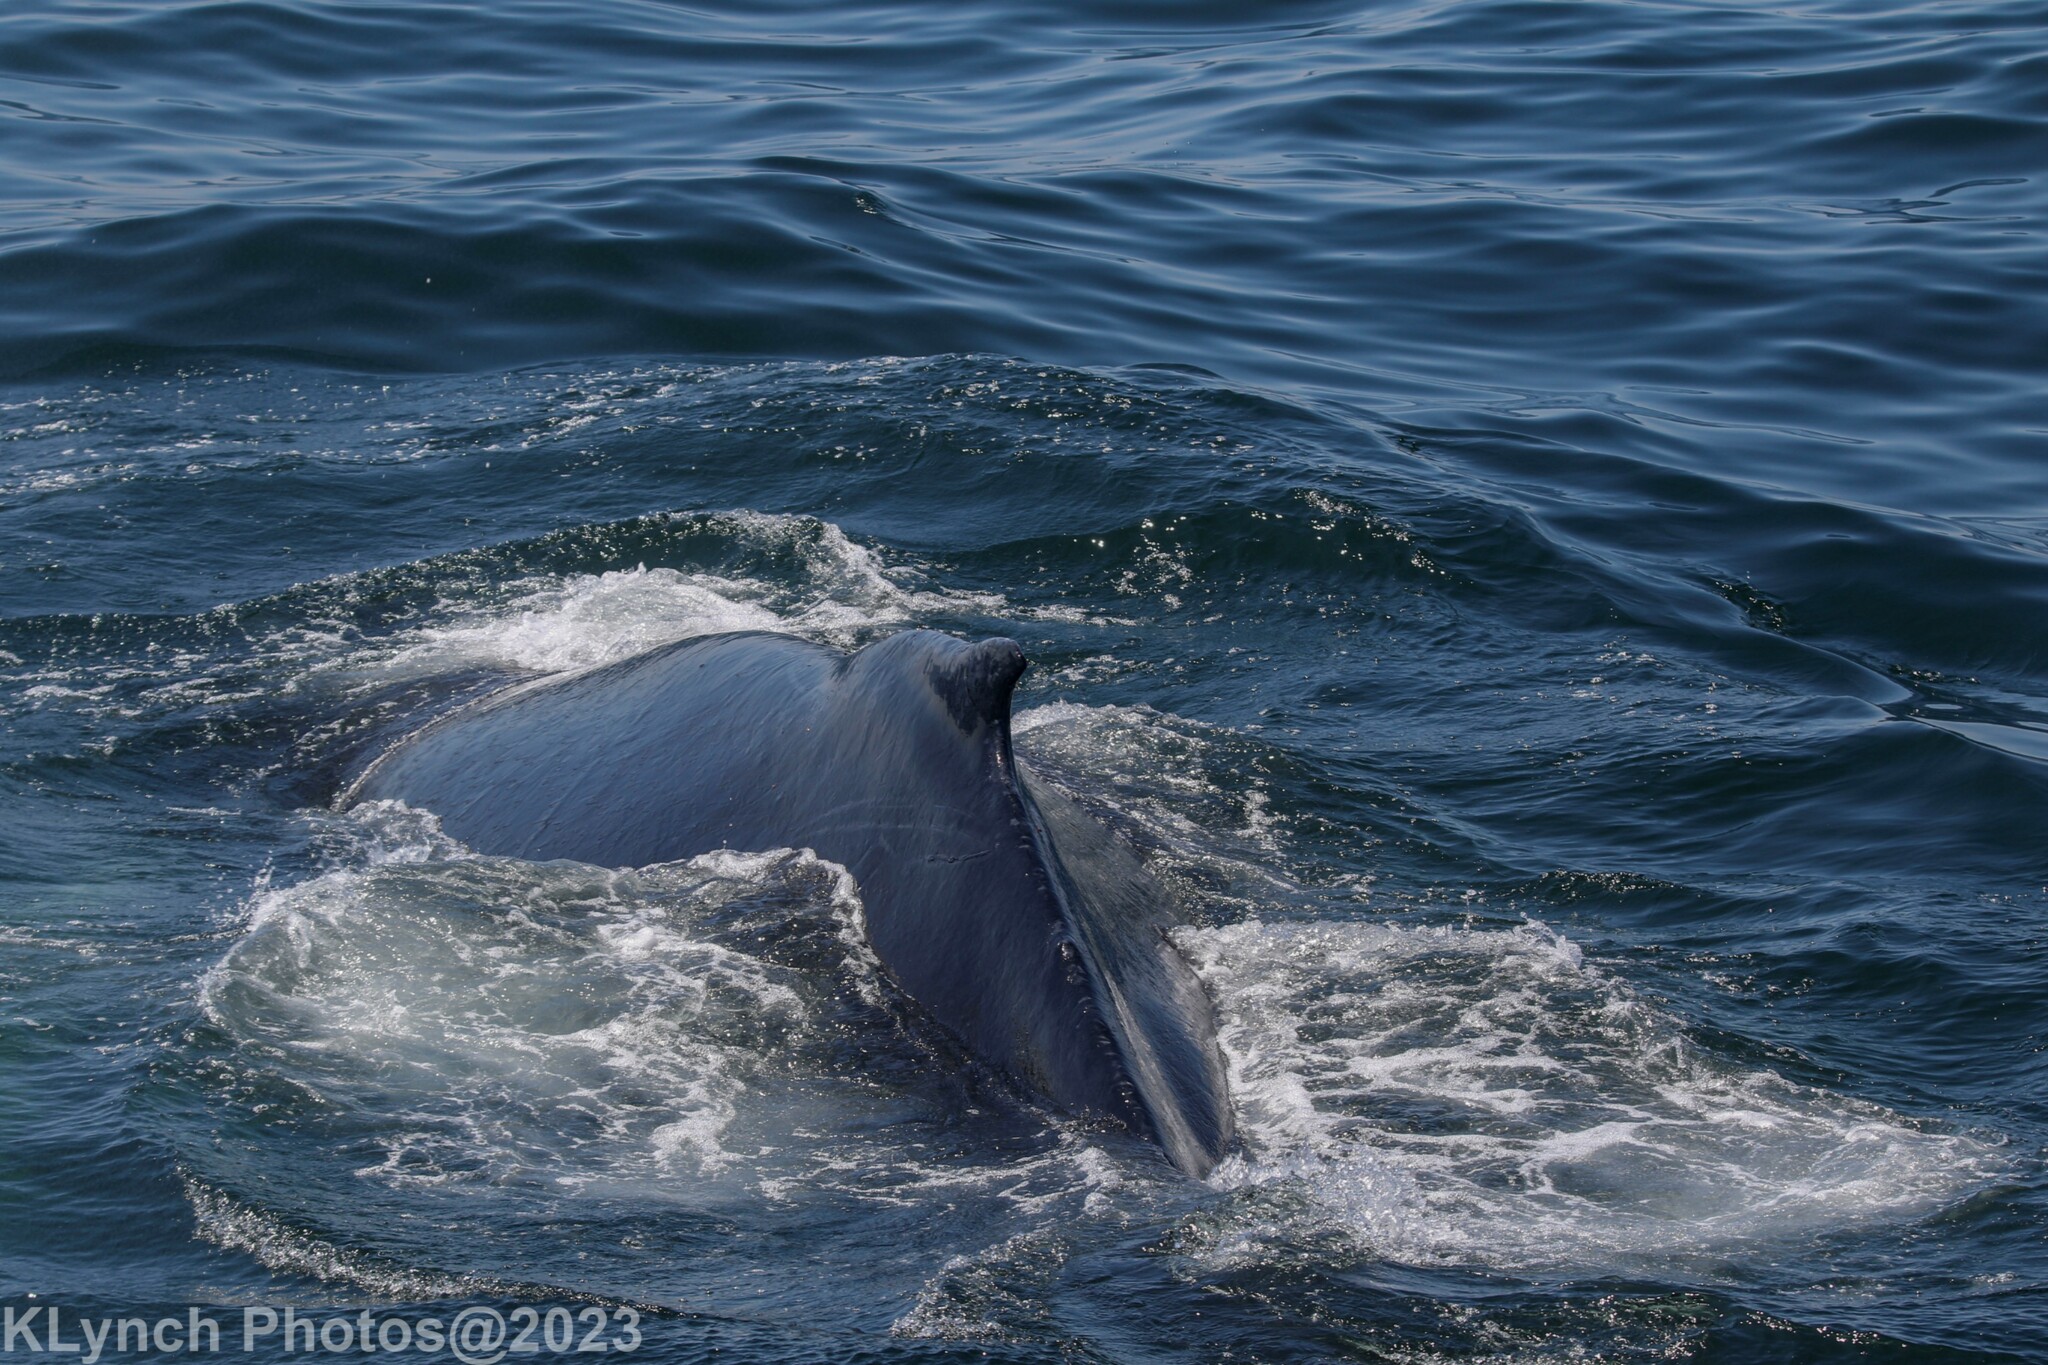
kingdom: Animalia
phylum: Chordata
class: Mammalia
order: Cetacea
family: Balaenopteridae
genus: Megaptera
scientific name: Megaptera novaeangliae
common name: Humpback whale
